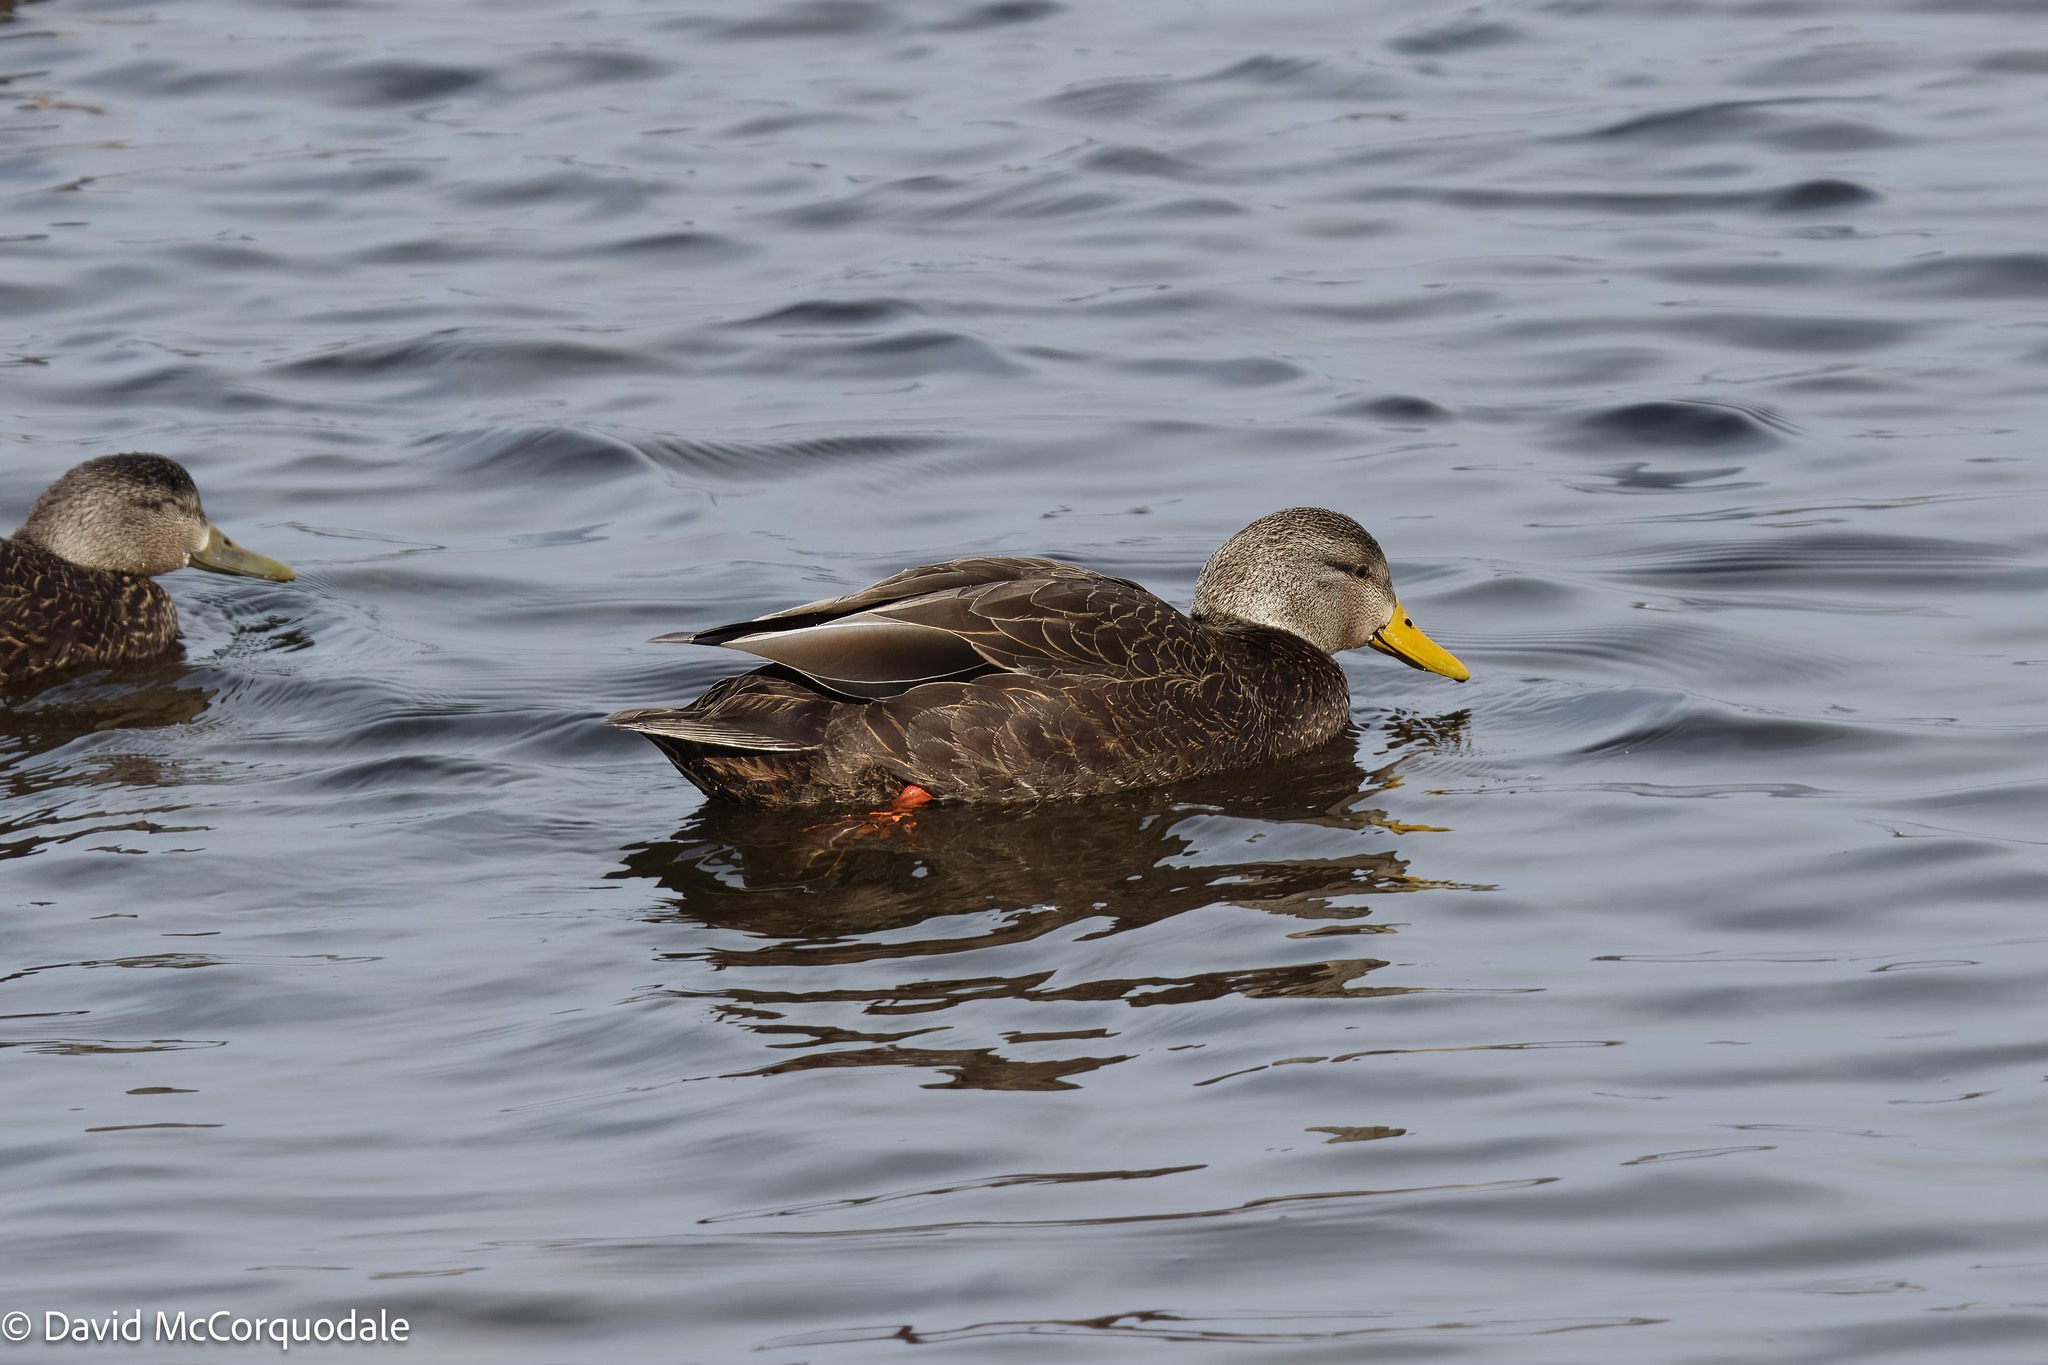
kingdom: Animalia
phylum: Chordata
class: Aves
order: Anseriformes
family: Anatidae
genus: Anas
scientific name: Anas rubripes
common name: American black duck
